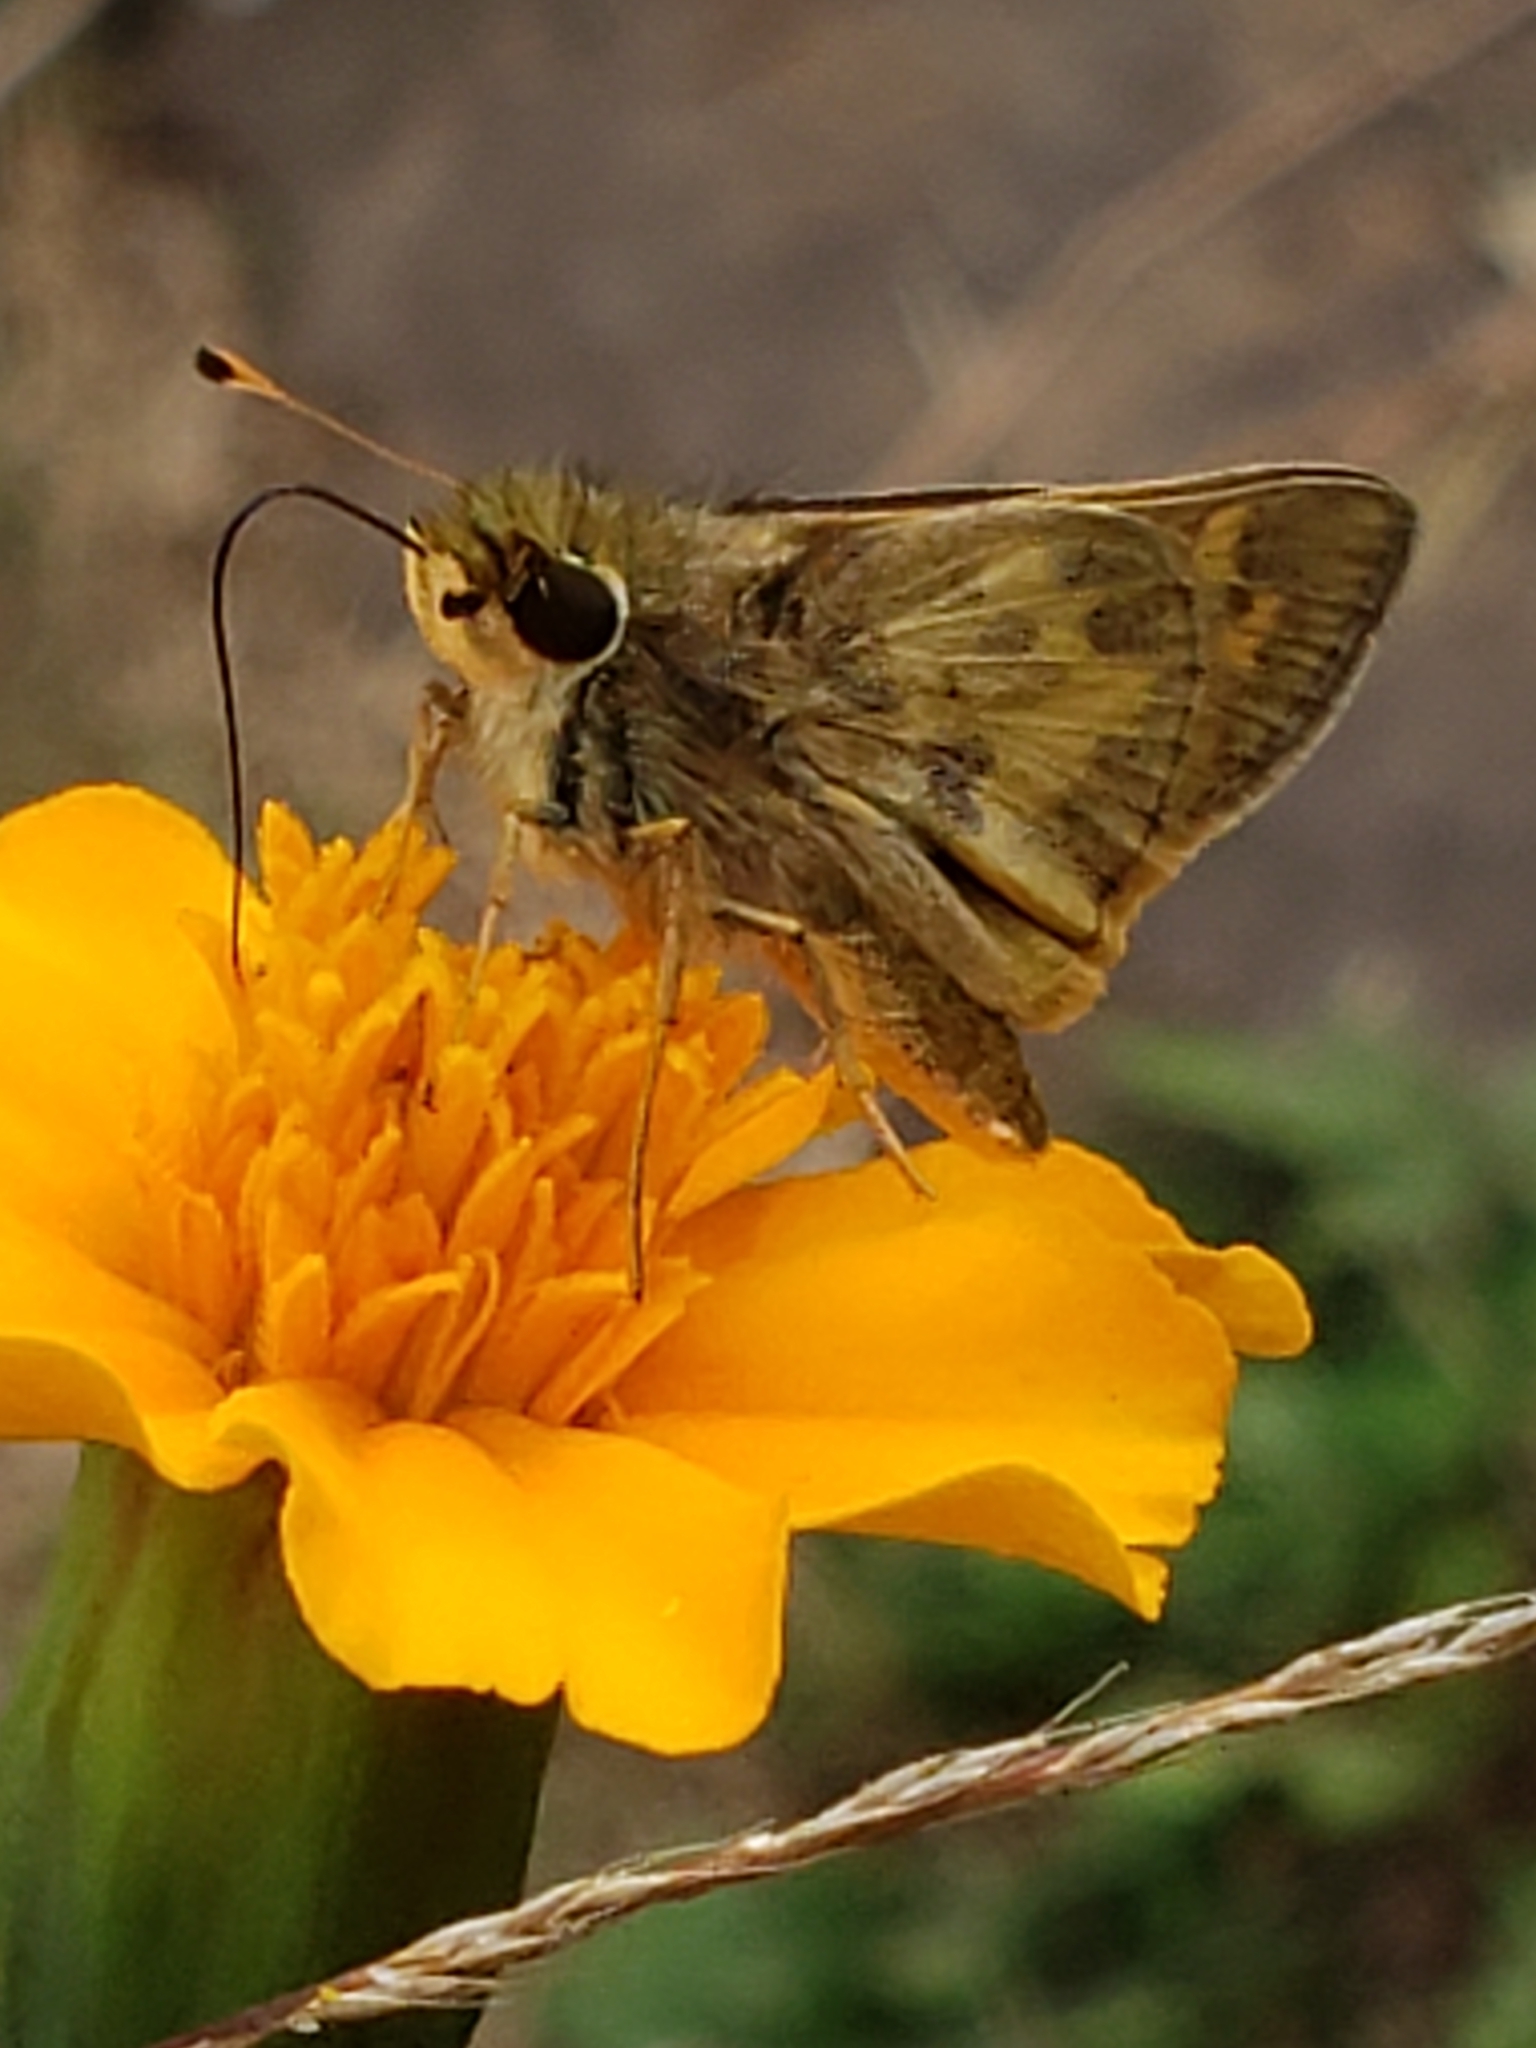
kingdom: Animalia
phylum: Arthropoda
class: Insecta
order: Lepidoptera
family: Hesperiidae
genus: Atalopedes
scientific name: Atalopedes
